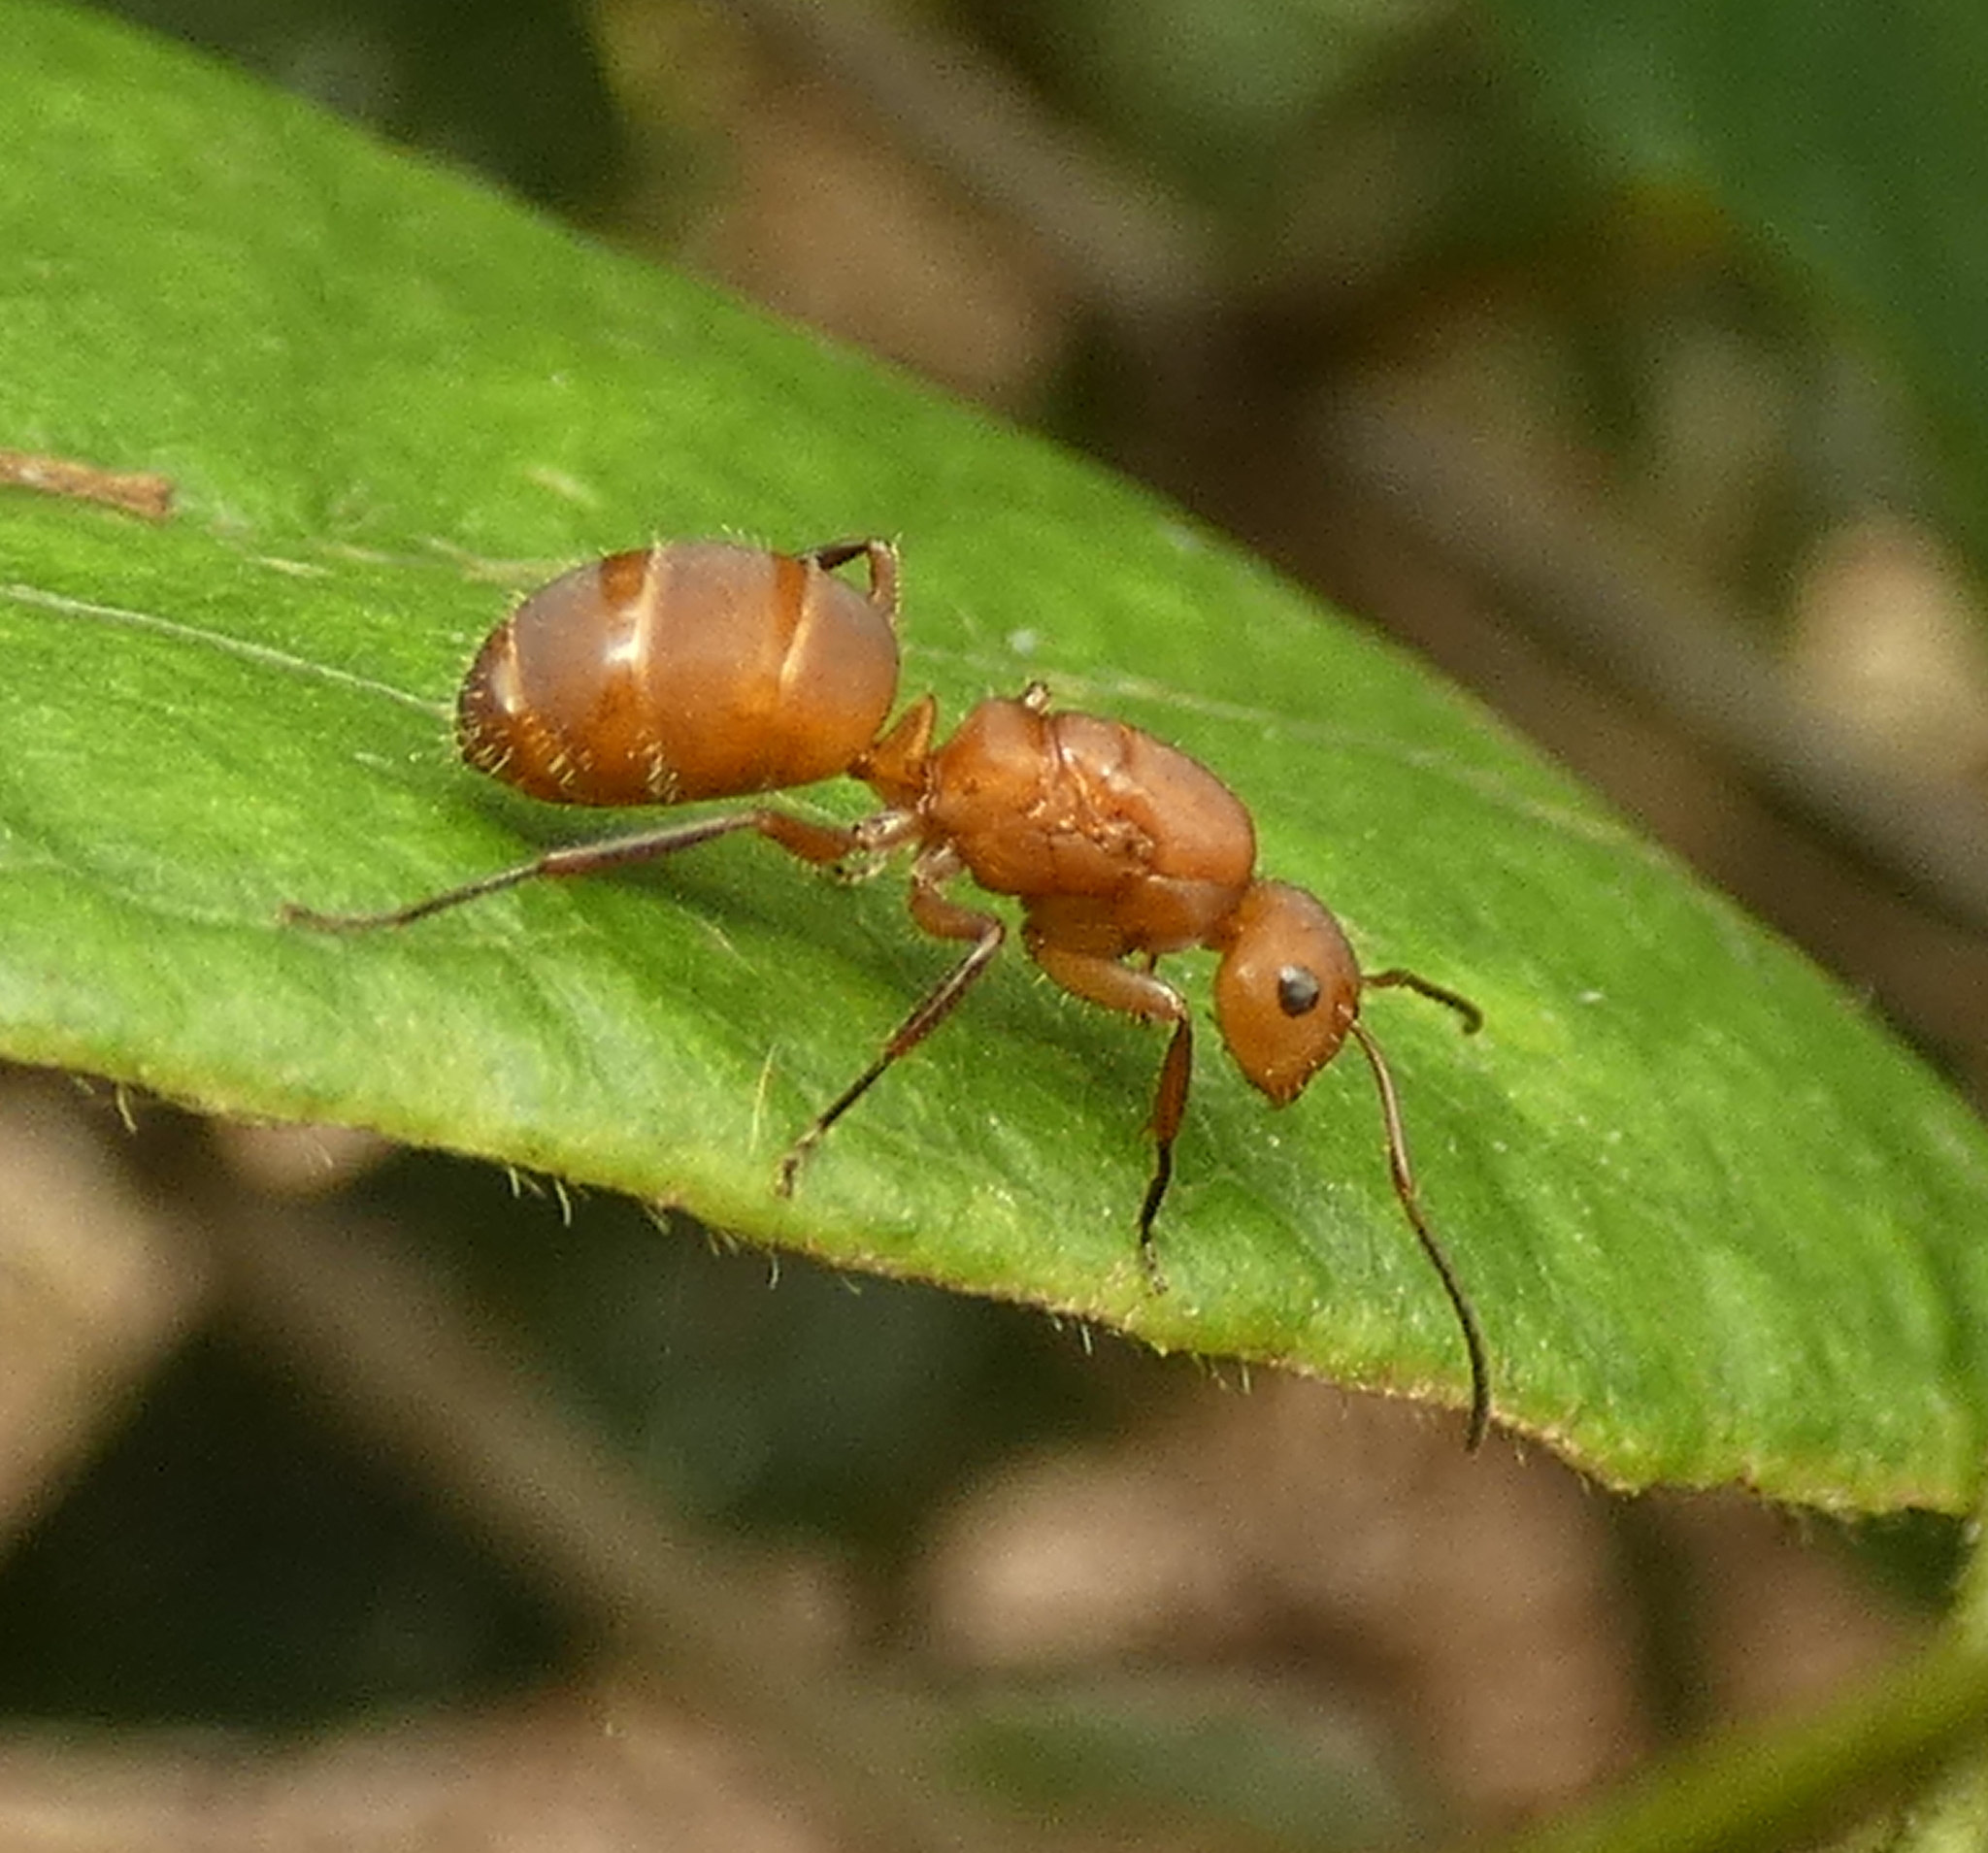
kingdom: Animalia
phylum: Arthropoda
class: Insecta
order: Hymenoptera
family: Formicidae
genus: Camponotus
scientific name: Camponotus rectangularis
